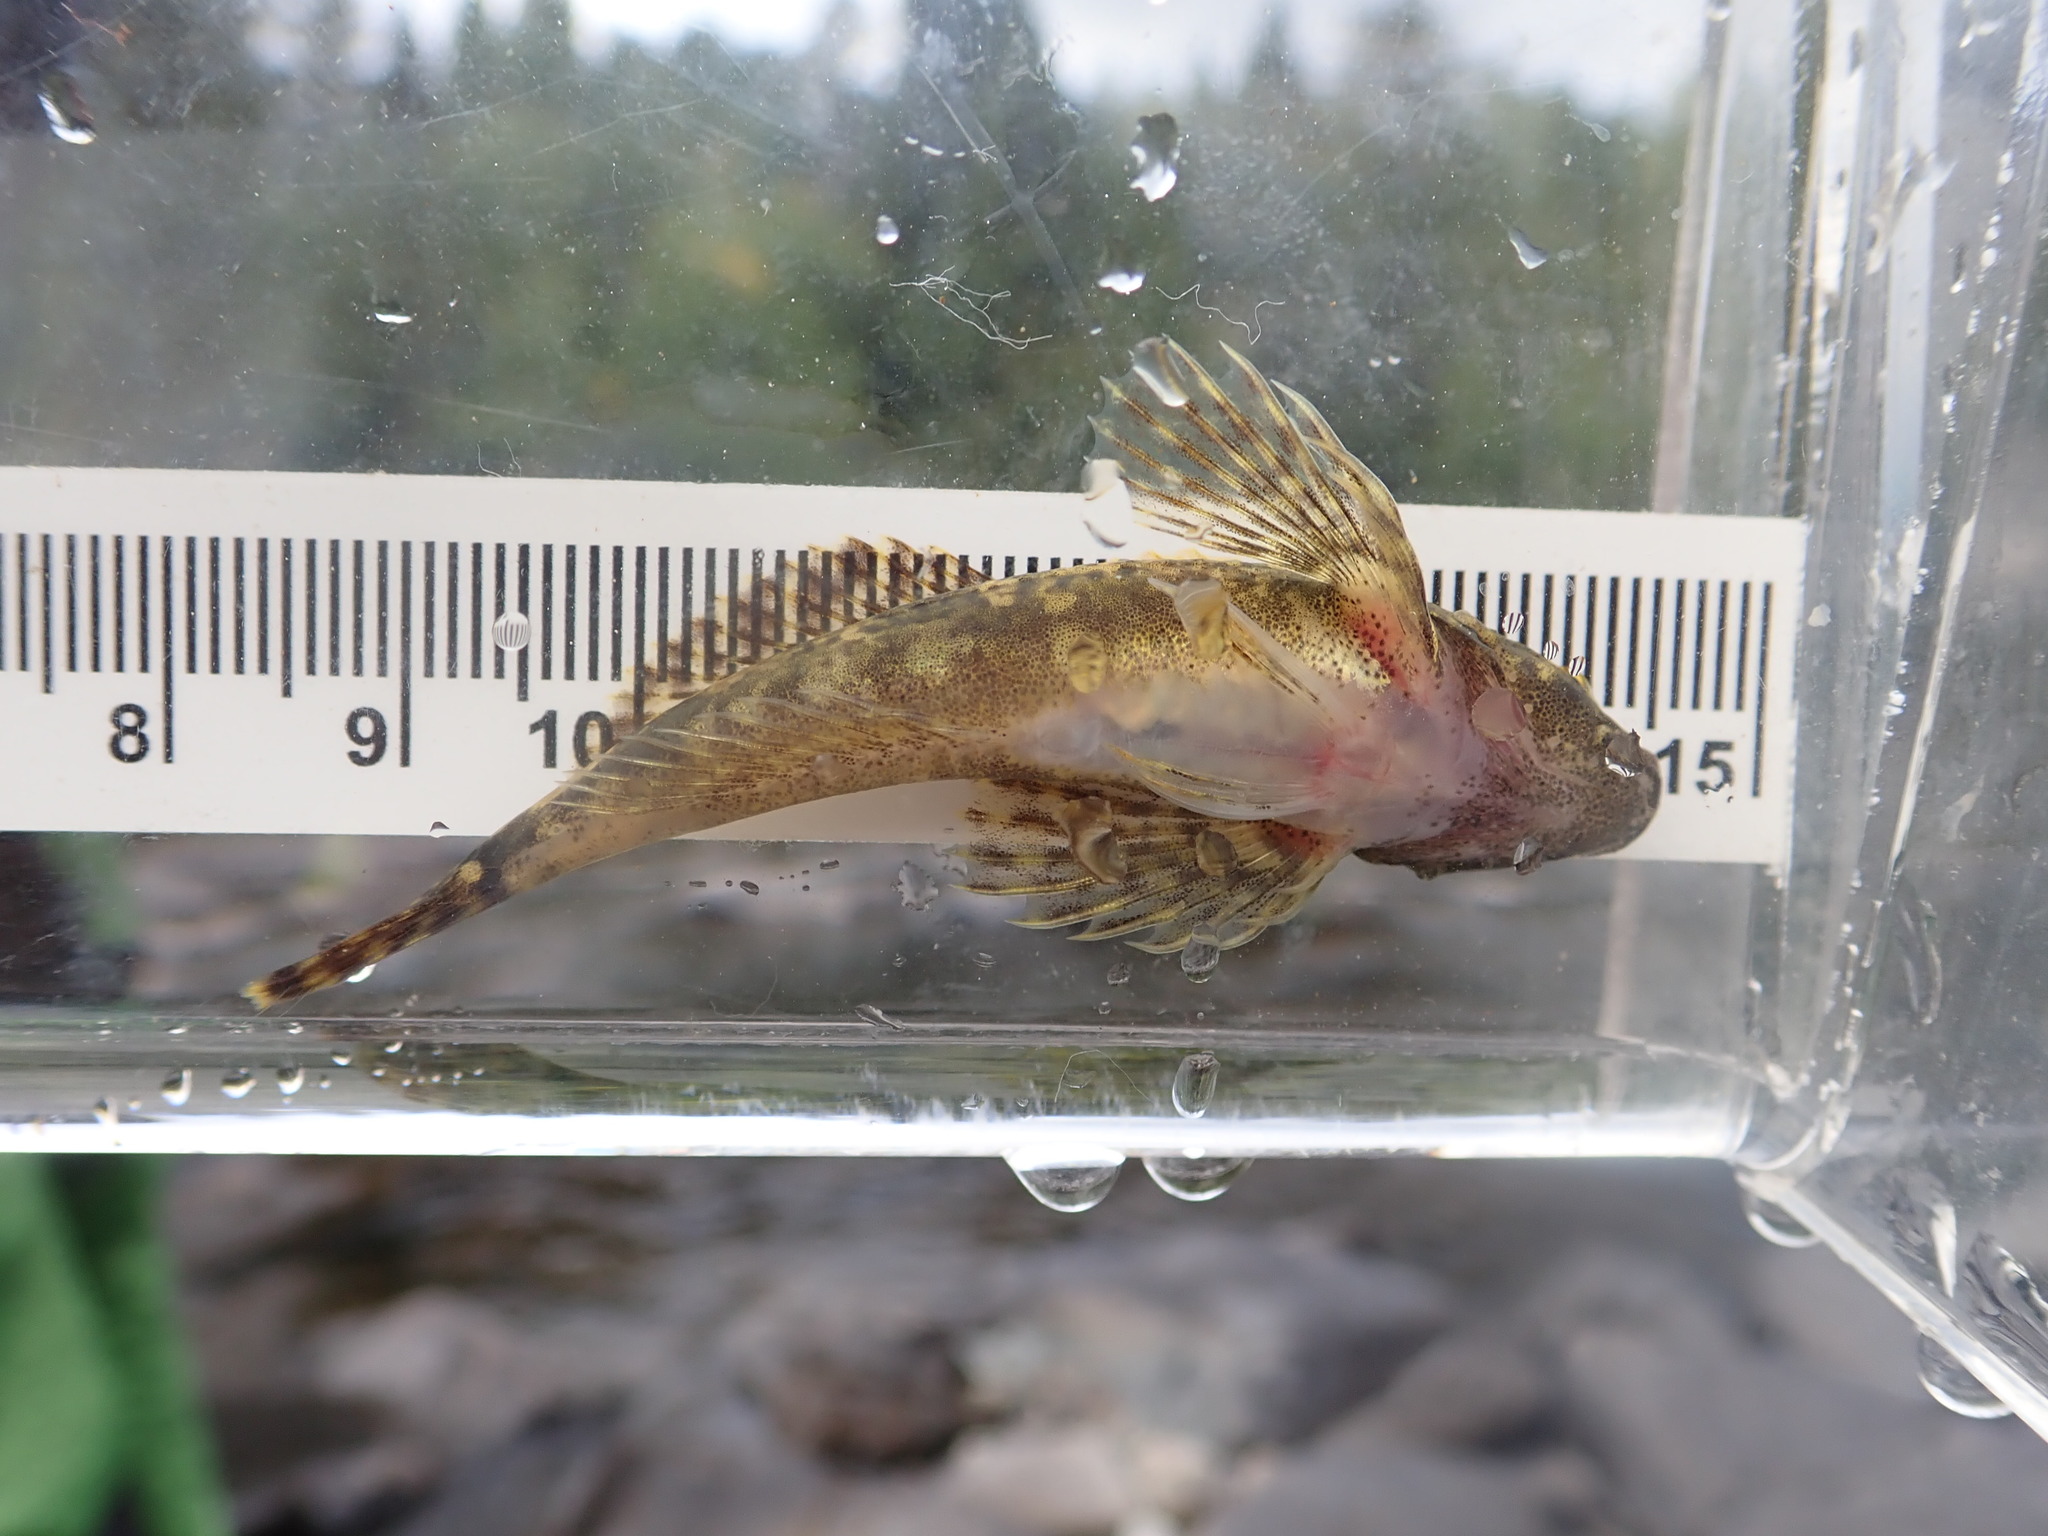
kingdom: Animalia
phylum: Chordata
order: Scorpaeniformes
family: Cottidae
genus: Cottus
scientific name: Cottus cognatus
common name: Slimy sculpin
